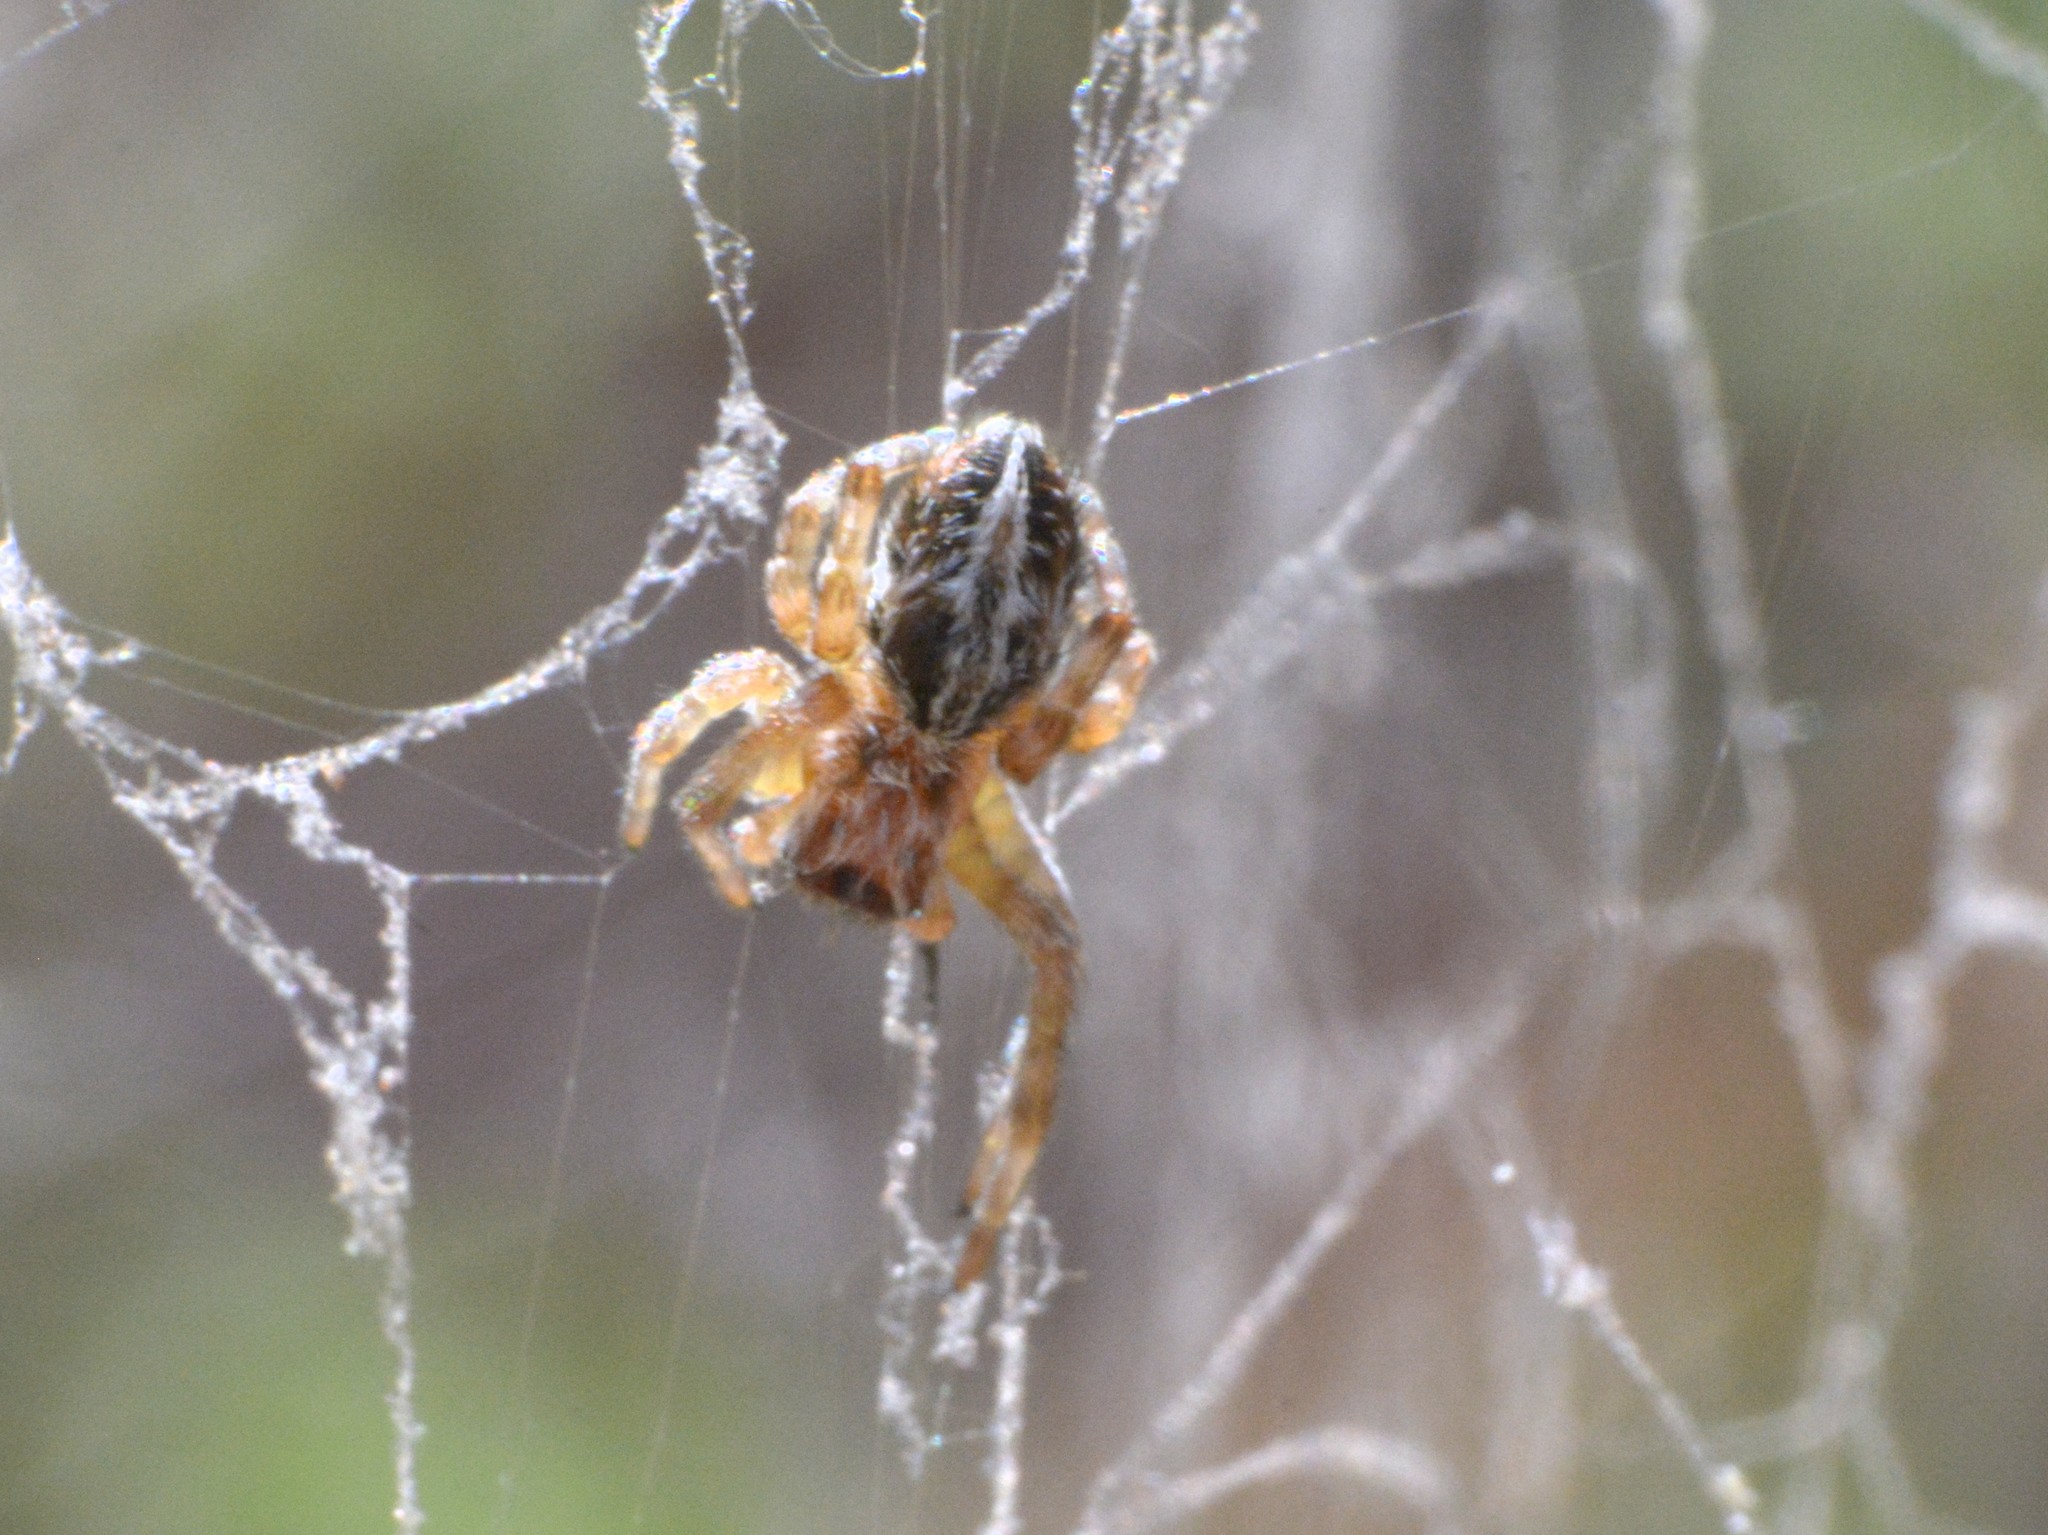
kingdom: Animalia
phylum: Arthropoda
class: Arachnida
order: Araneae
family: Eresidae
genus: Stegodyphus
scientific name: Stegodyphus dumicola
